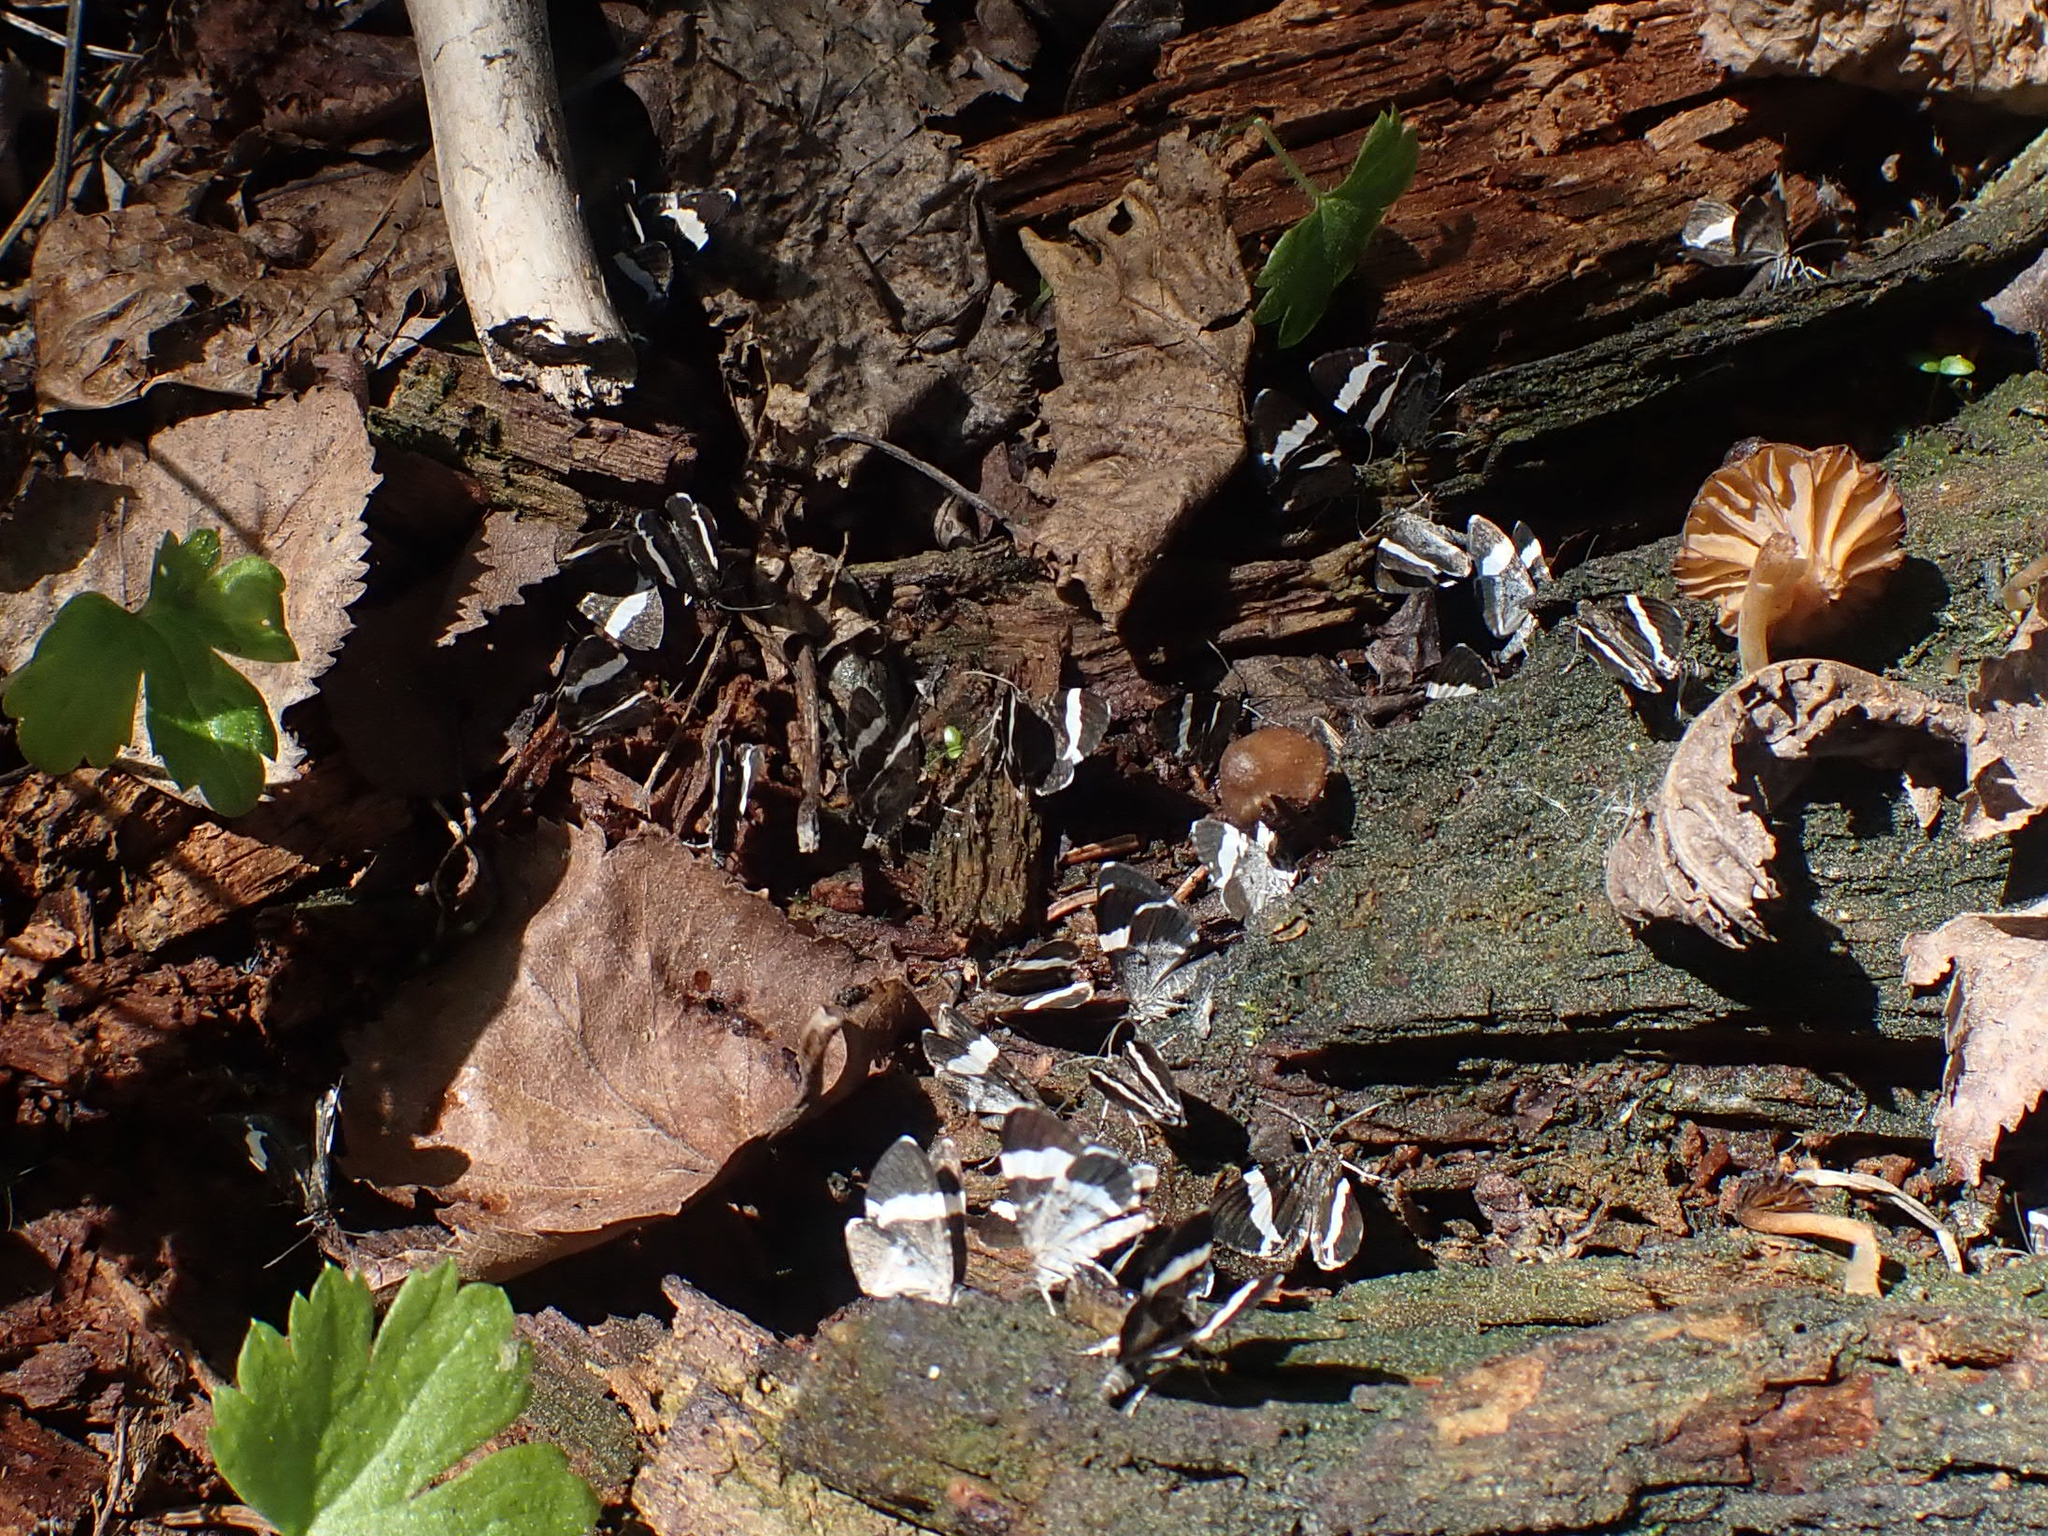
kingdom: Animalia
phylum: Arthropoda
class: Insecta
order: Lepidoptera
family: Geometridae
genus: Trichodezia
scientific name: Trichodezia albovittata
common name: White striped black
